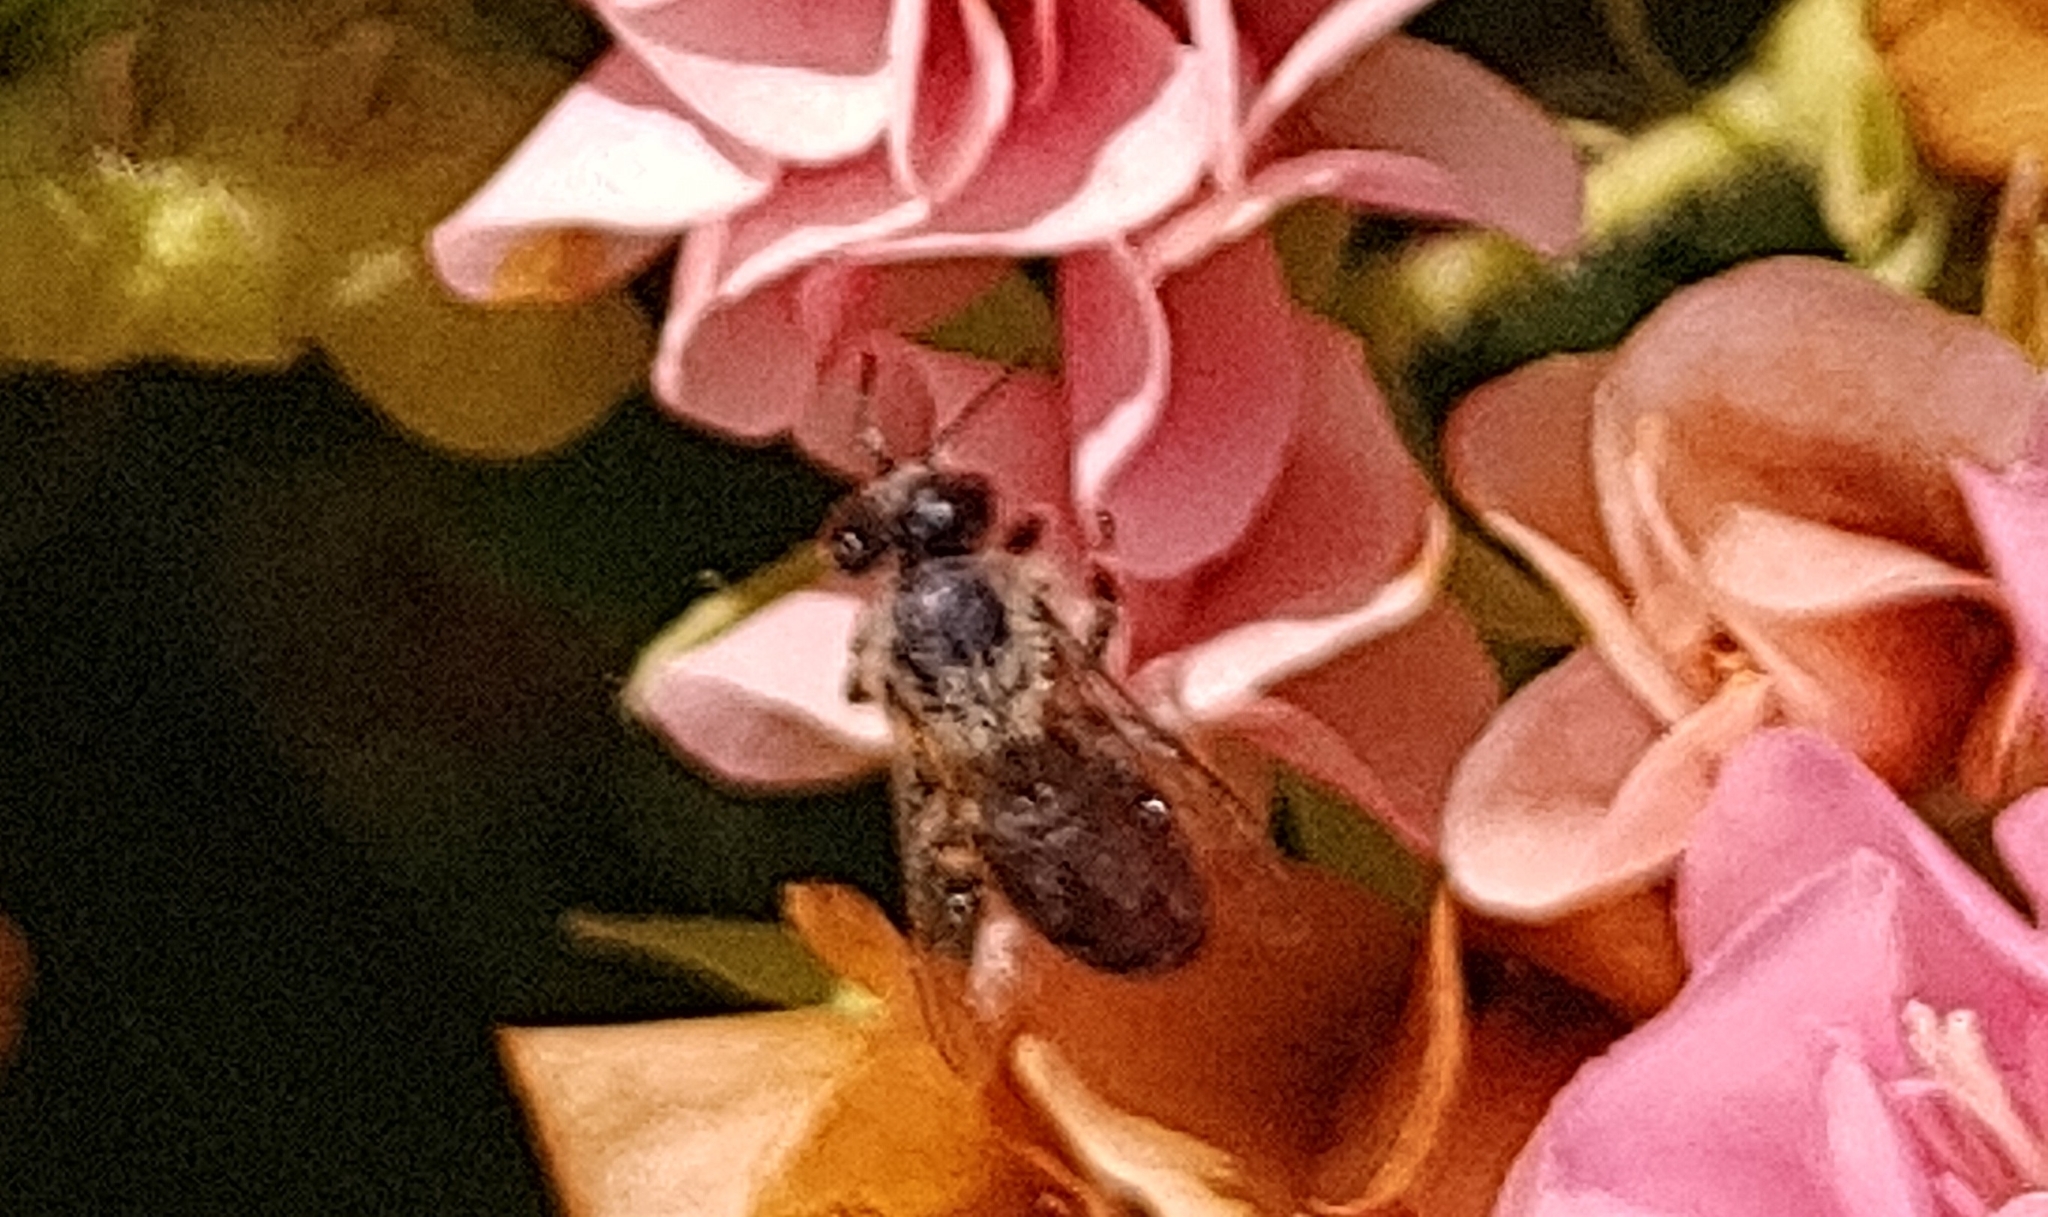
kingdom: Animalia
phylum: Arthropoda
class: Insecta
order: Hymenoptera
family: Apidae
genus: Apis
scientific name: Apis mellifera
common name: Honey bee
